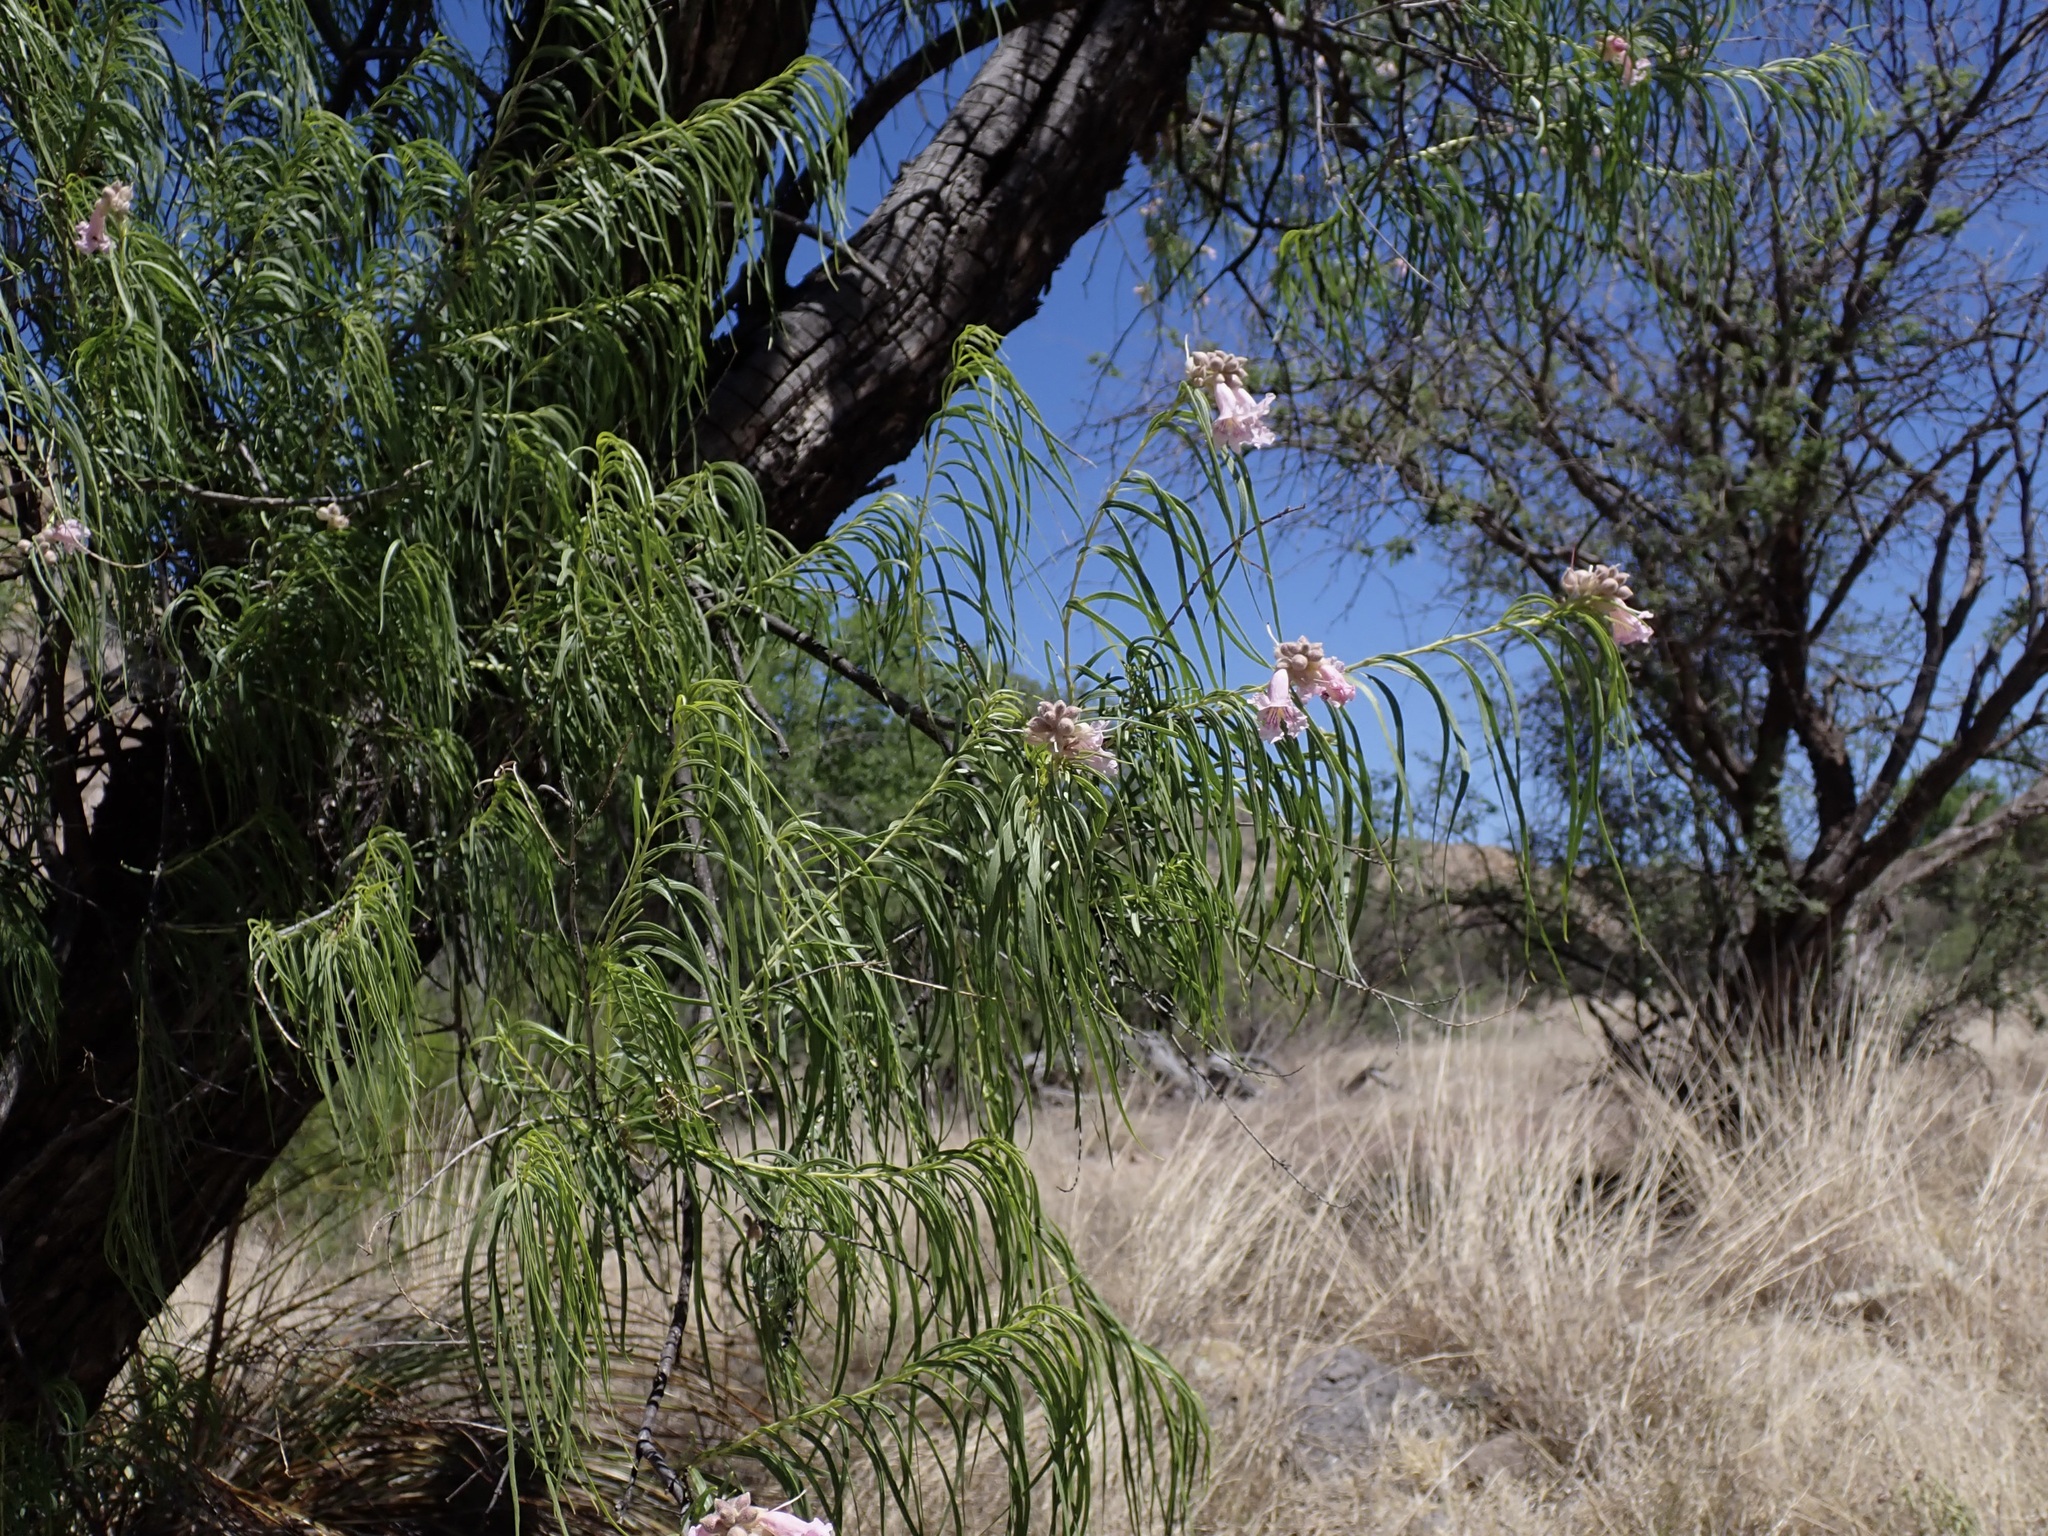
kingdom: Plantae
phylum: Tracheophyta
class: Magnoliopsida
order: Lamiales
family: Bignoniaceae
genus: Chilopsis
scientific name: Chilopsis linearis
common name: Desert-willow
